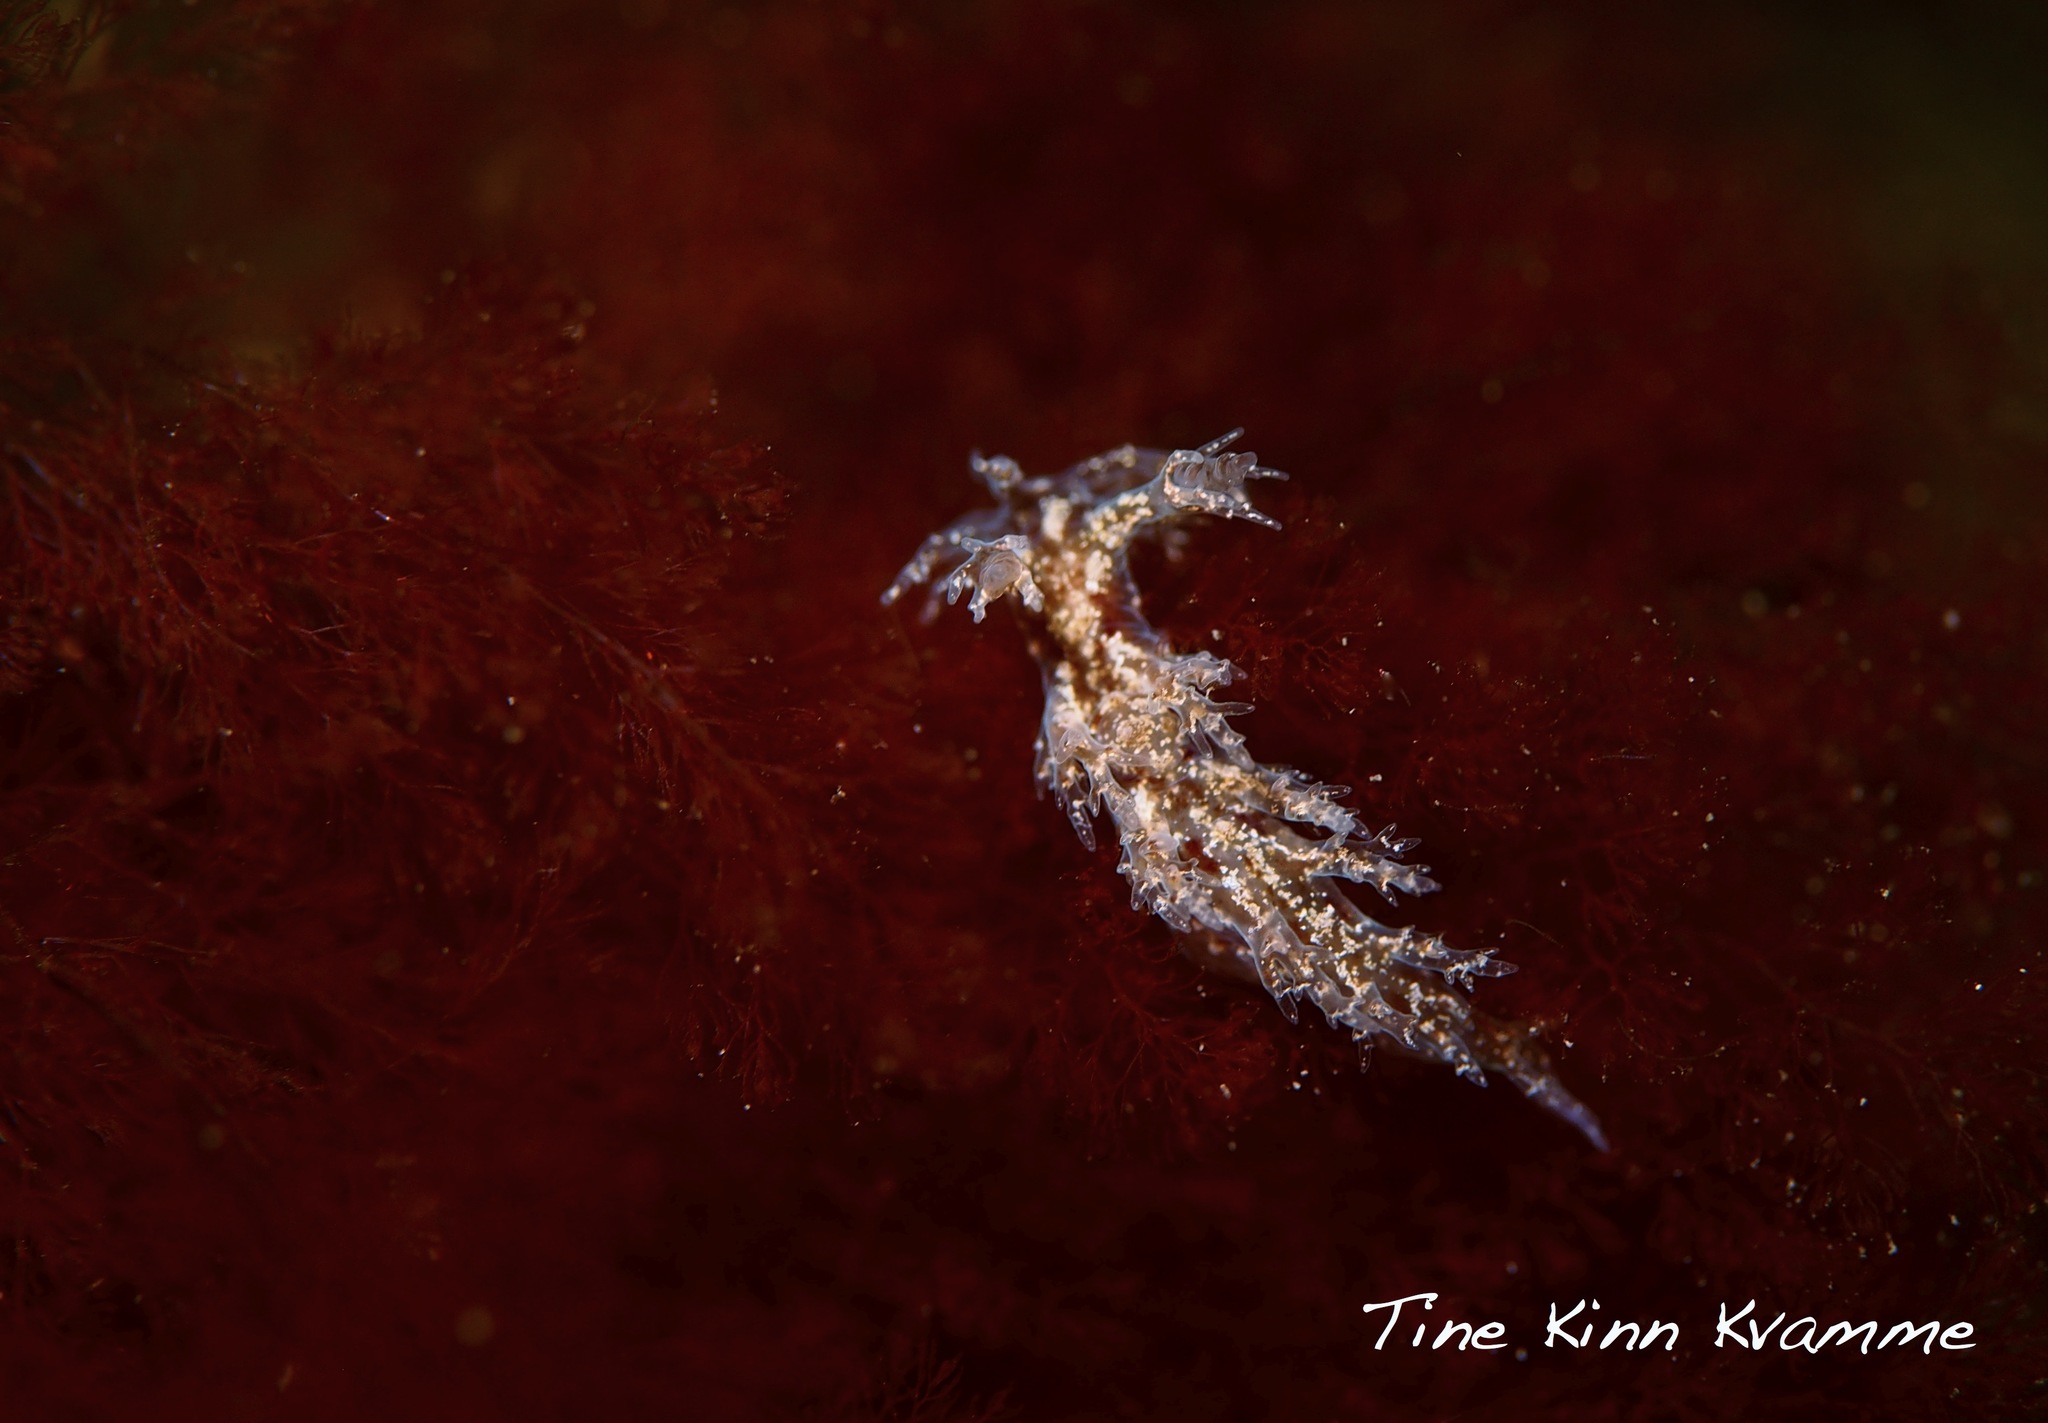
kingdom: Animalia
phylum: Mollusca
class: Gastropoda
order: Nudibranchia
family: Dendronotidae
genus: Dendronotus
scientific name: Dendronotus frondosus
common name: Bushy-backed nudibranch
